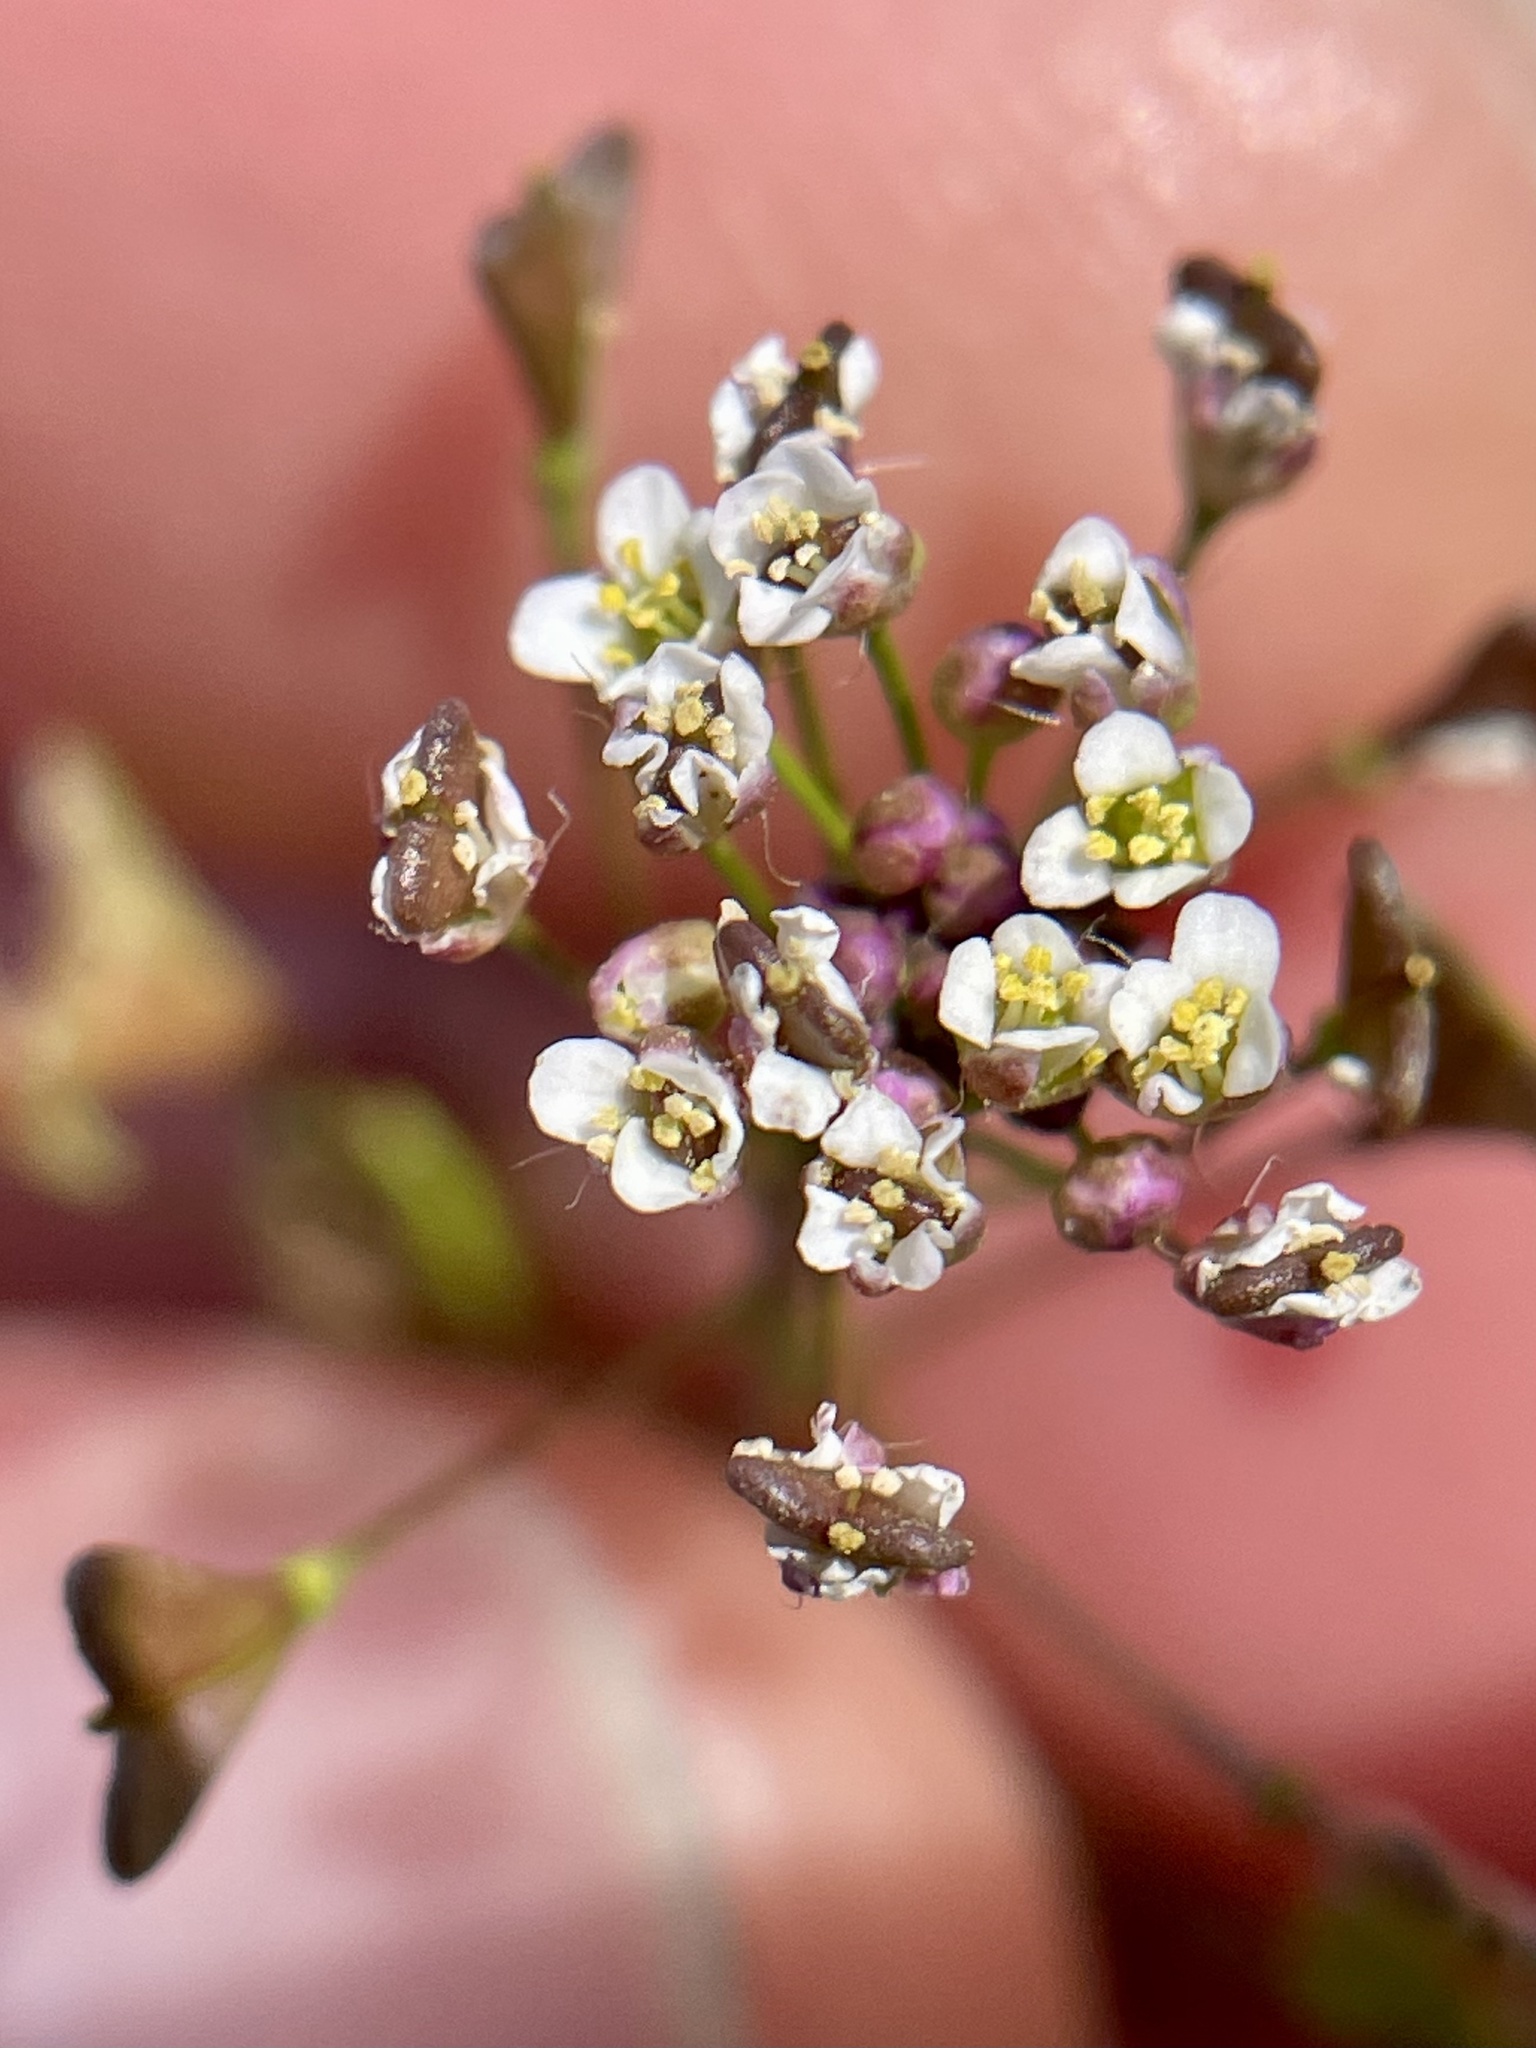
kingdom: Plantae
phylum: Tracheophyta
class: Magnoliopsida
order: Brassicales
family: Brassicaceae
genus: Capsella
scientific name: Capsella bursa-pastoris
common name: Shepherd's purse
